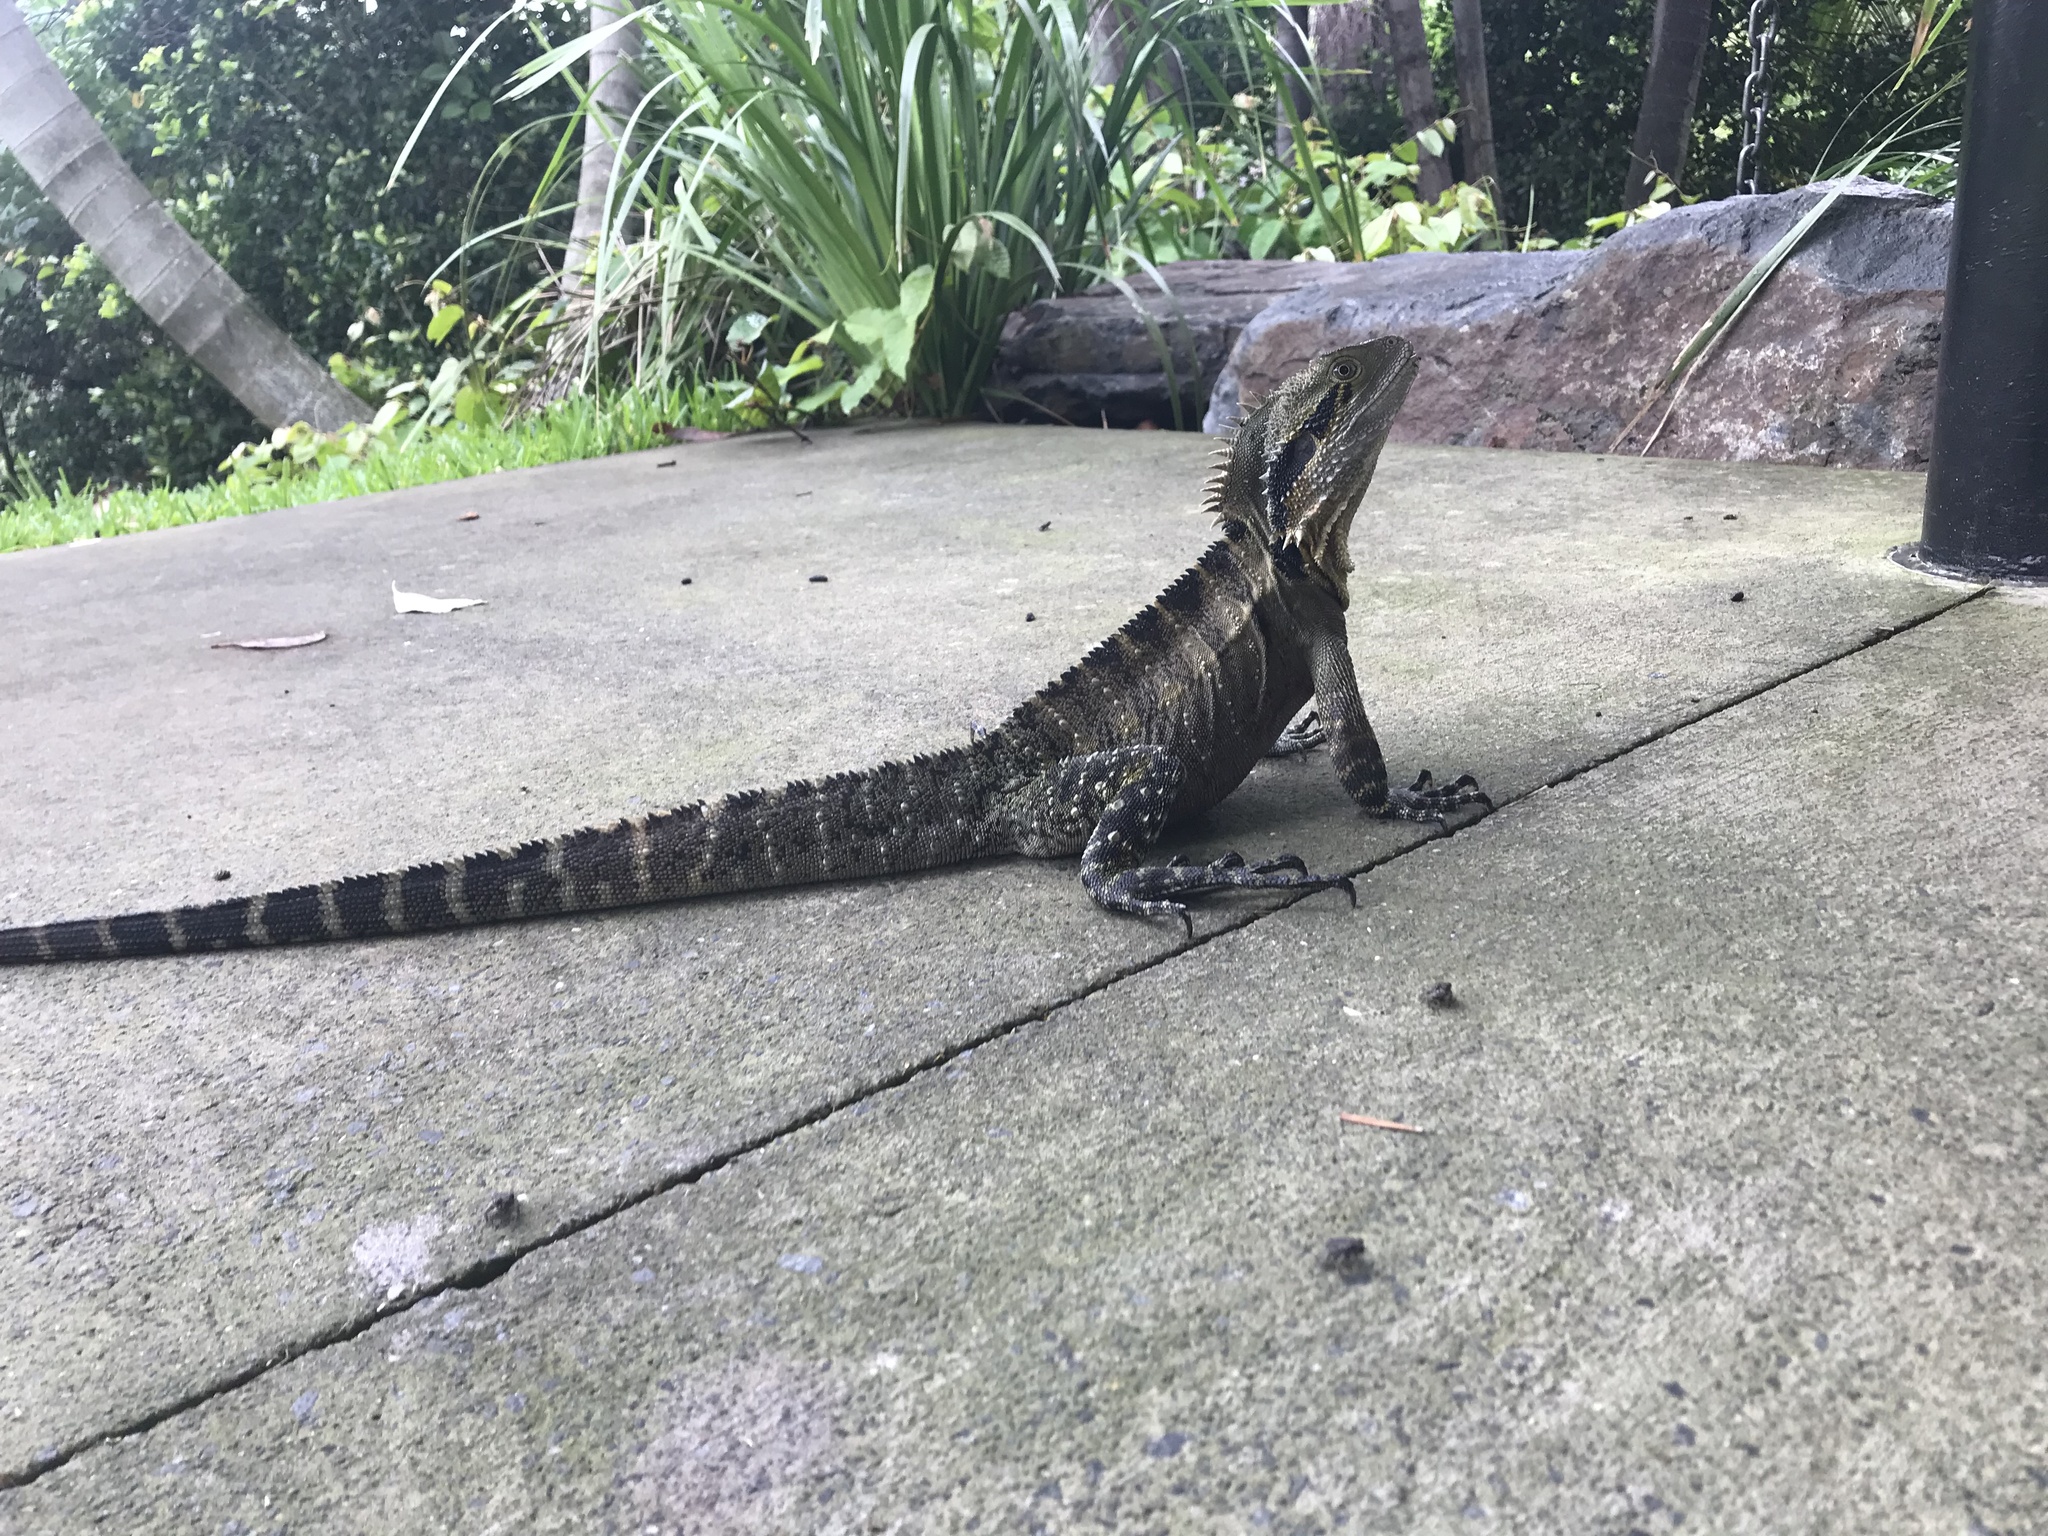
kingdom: Animalia
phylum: Chordata
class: Squamata
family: Agamidae
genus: Intellagama
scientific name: Intellagama lesueurii
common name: Eastern water dragon
